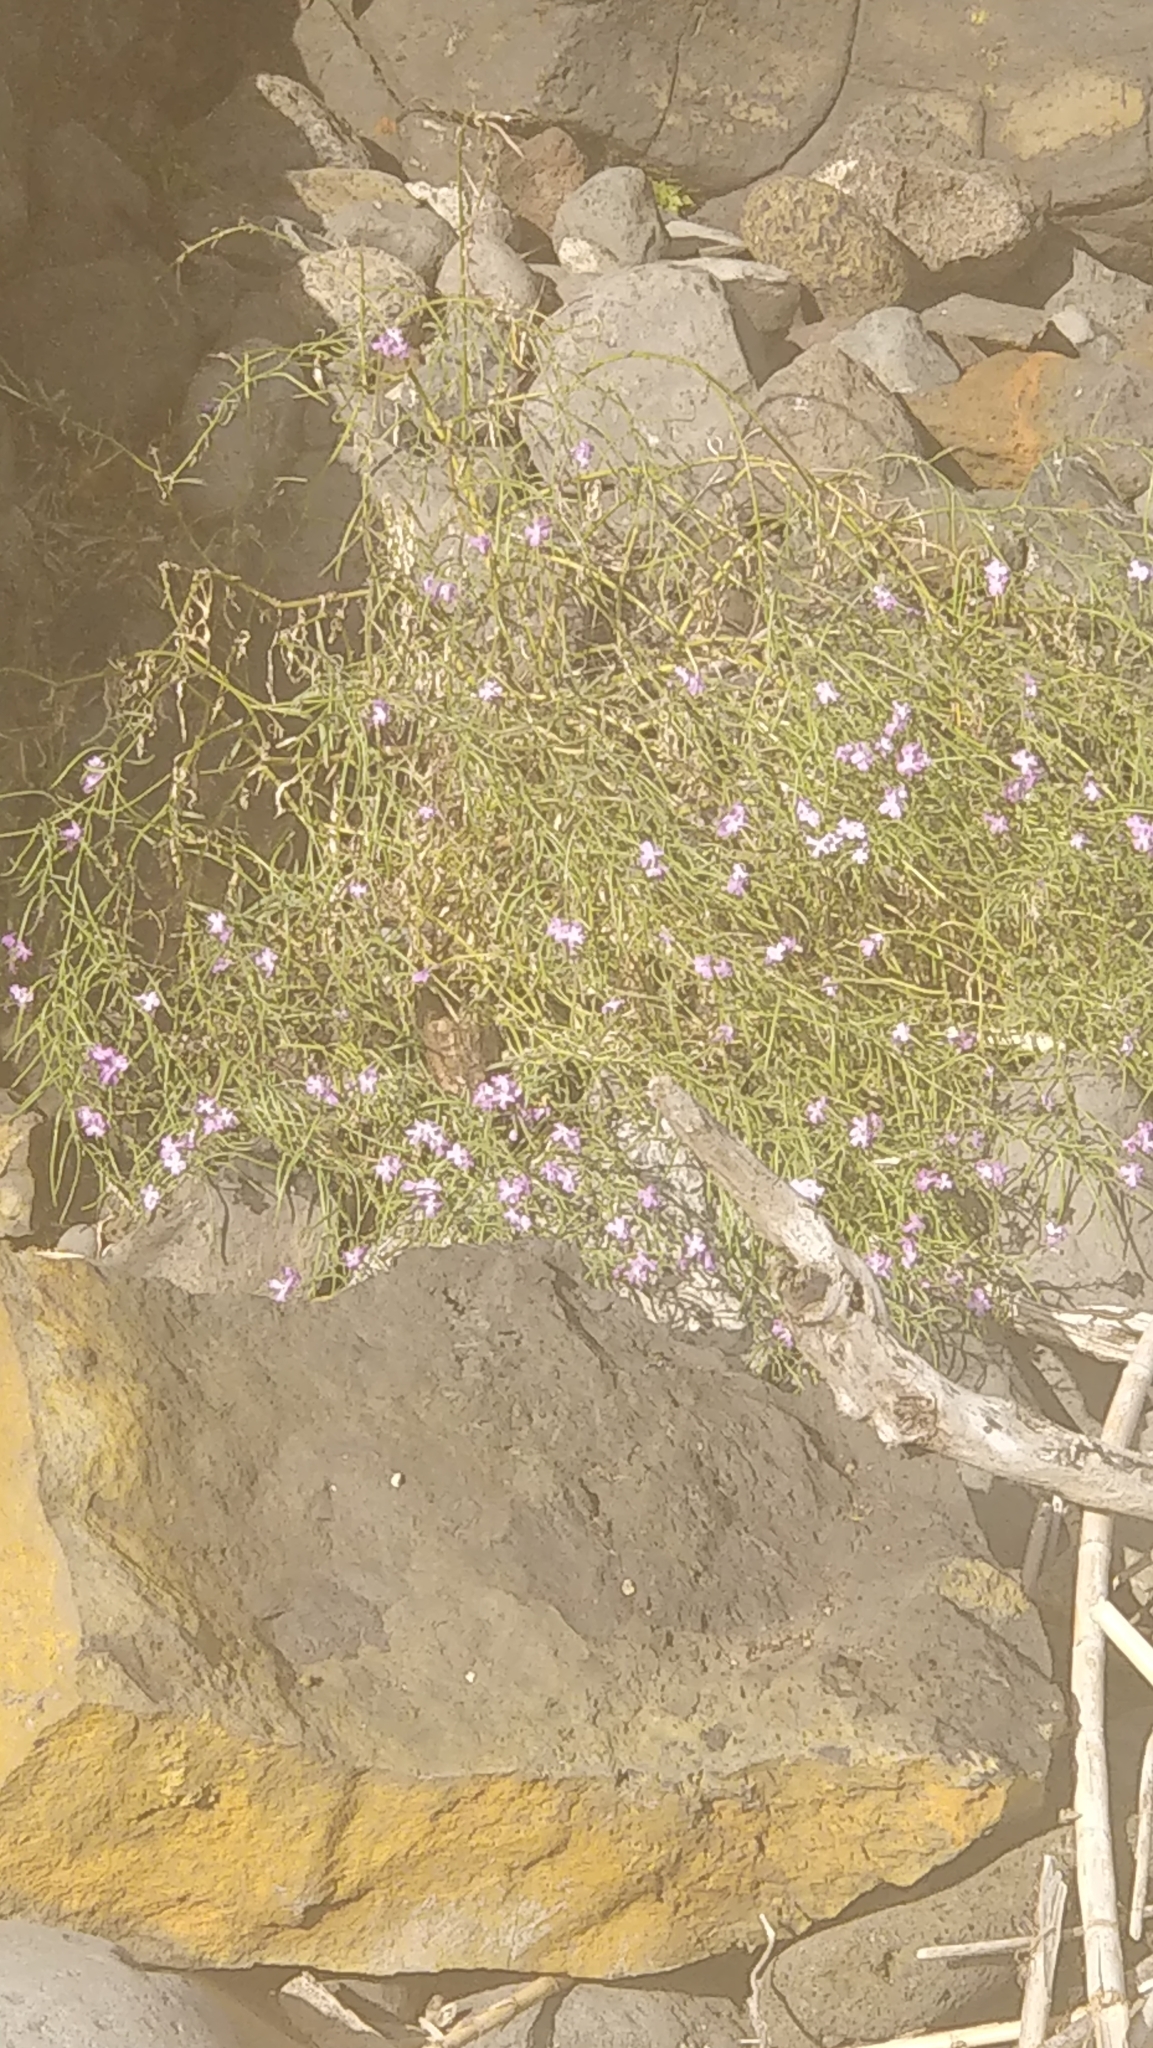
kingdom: Plantae
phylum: Tracheophyta
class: Magnoliopsida
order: Brassicales
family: Brassicaceae
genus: Matthiola
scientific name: Matthiola maderensis
